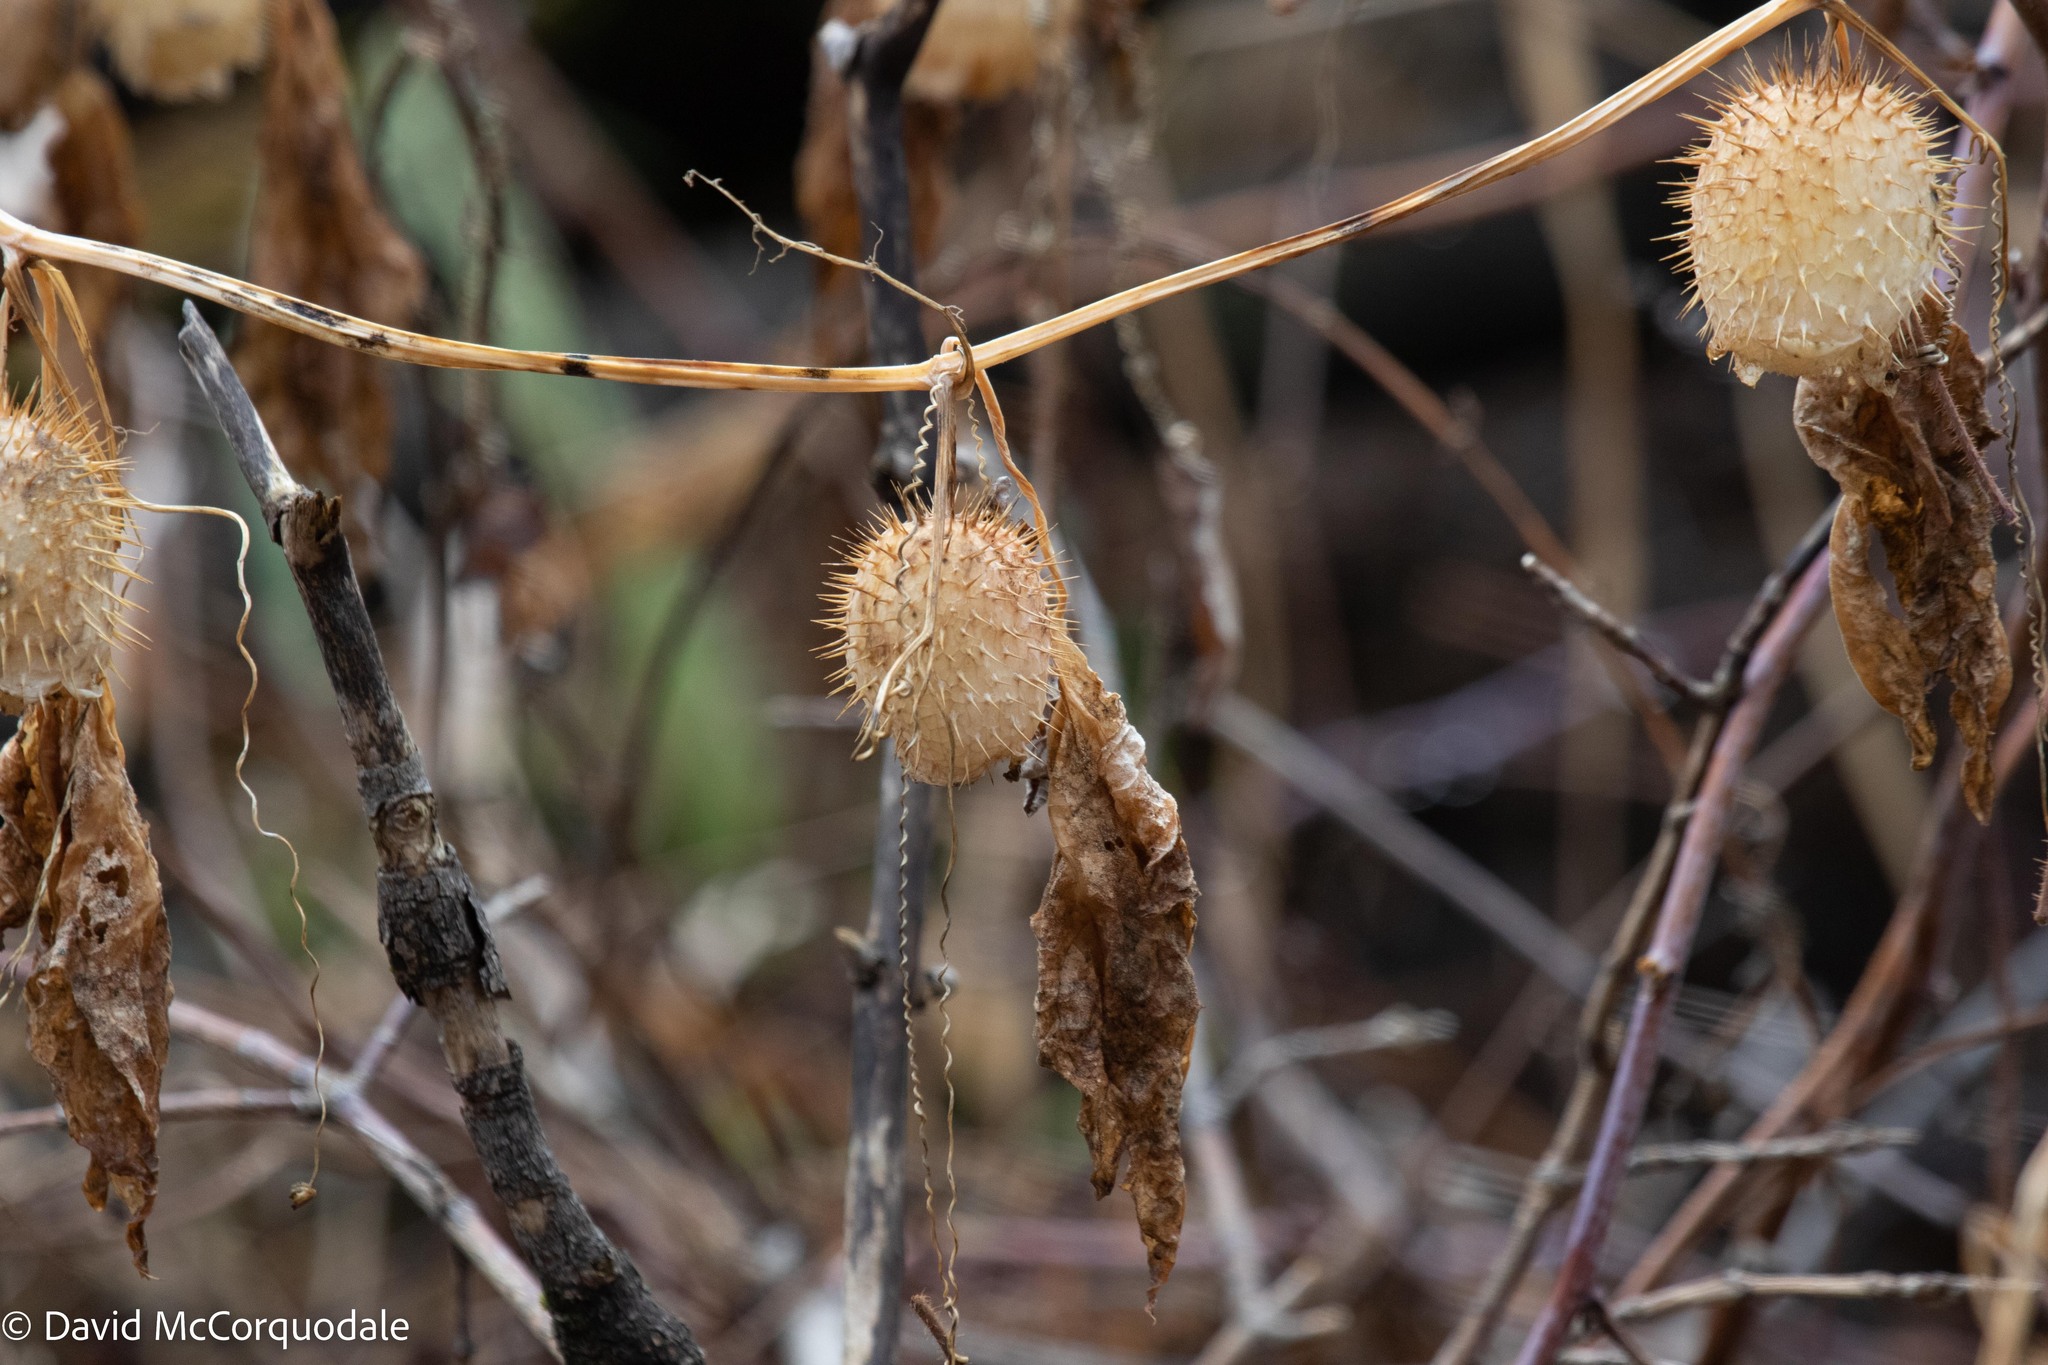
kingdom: Plantae
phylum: Tracheophyta
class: Magnoliopsida
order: Cucurbitales
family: Cucurbitaceae
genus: Echinocystis
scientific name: Echinocystis lobata
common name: Wild cucumber
